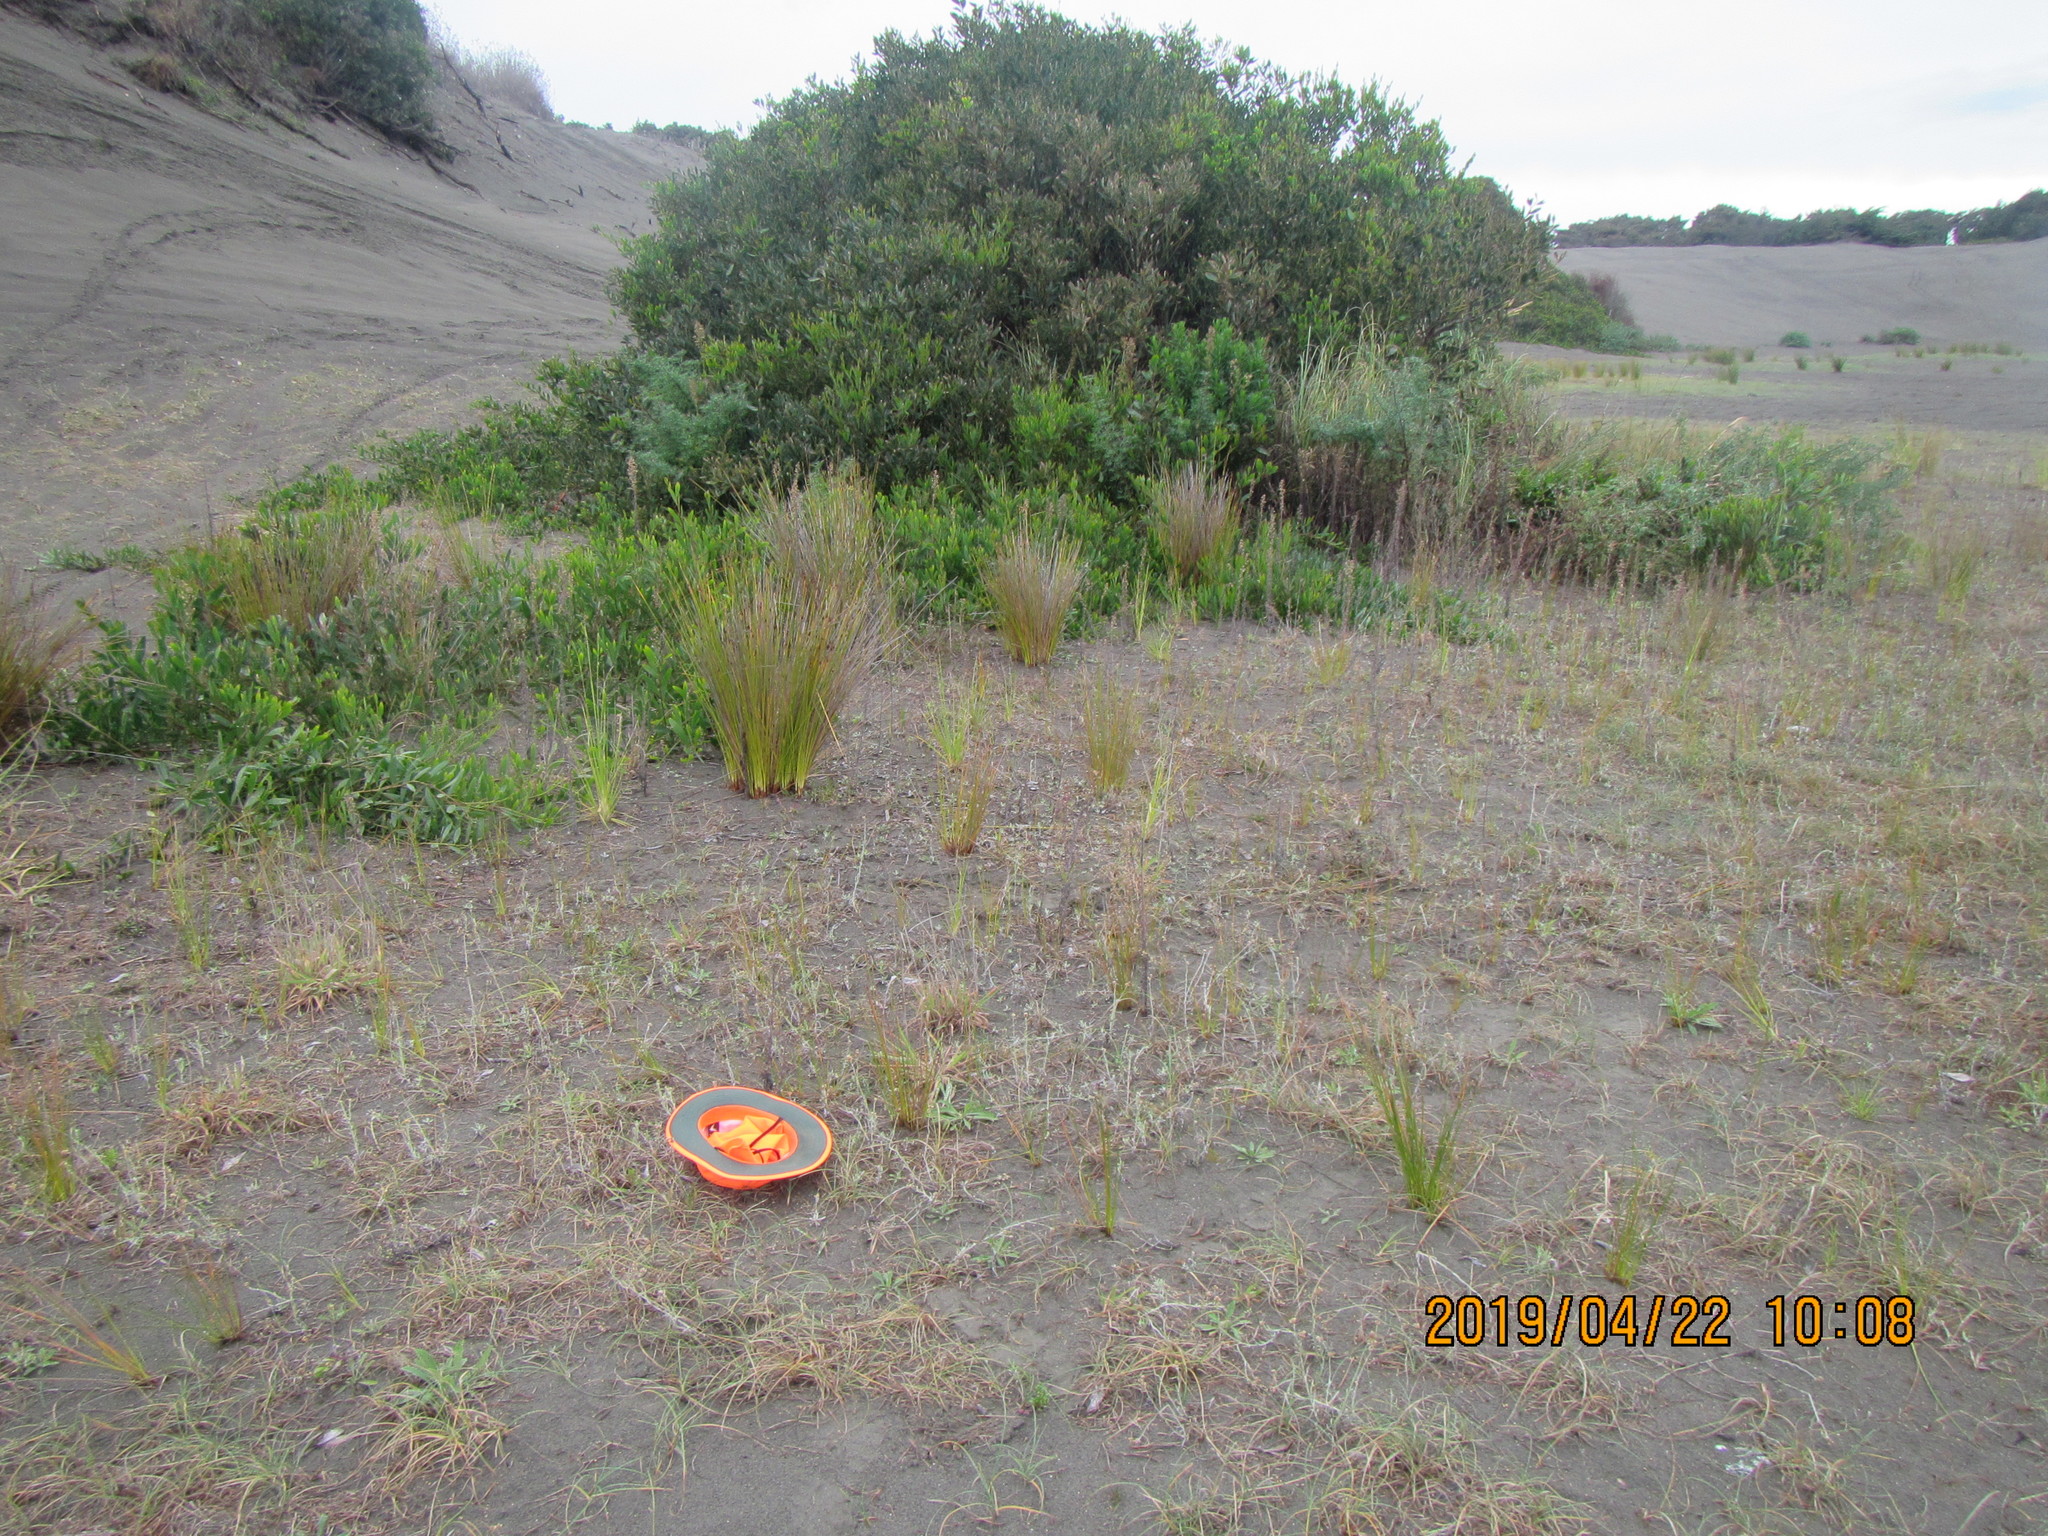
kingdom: Plantae
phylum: Tracheophyta
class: Magnoliopsida
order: Asterales
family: Asteraceae
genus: Helichrysum
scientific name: Helichrysum luteoalbum
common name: Daisy
